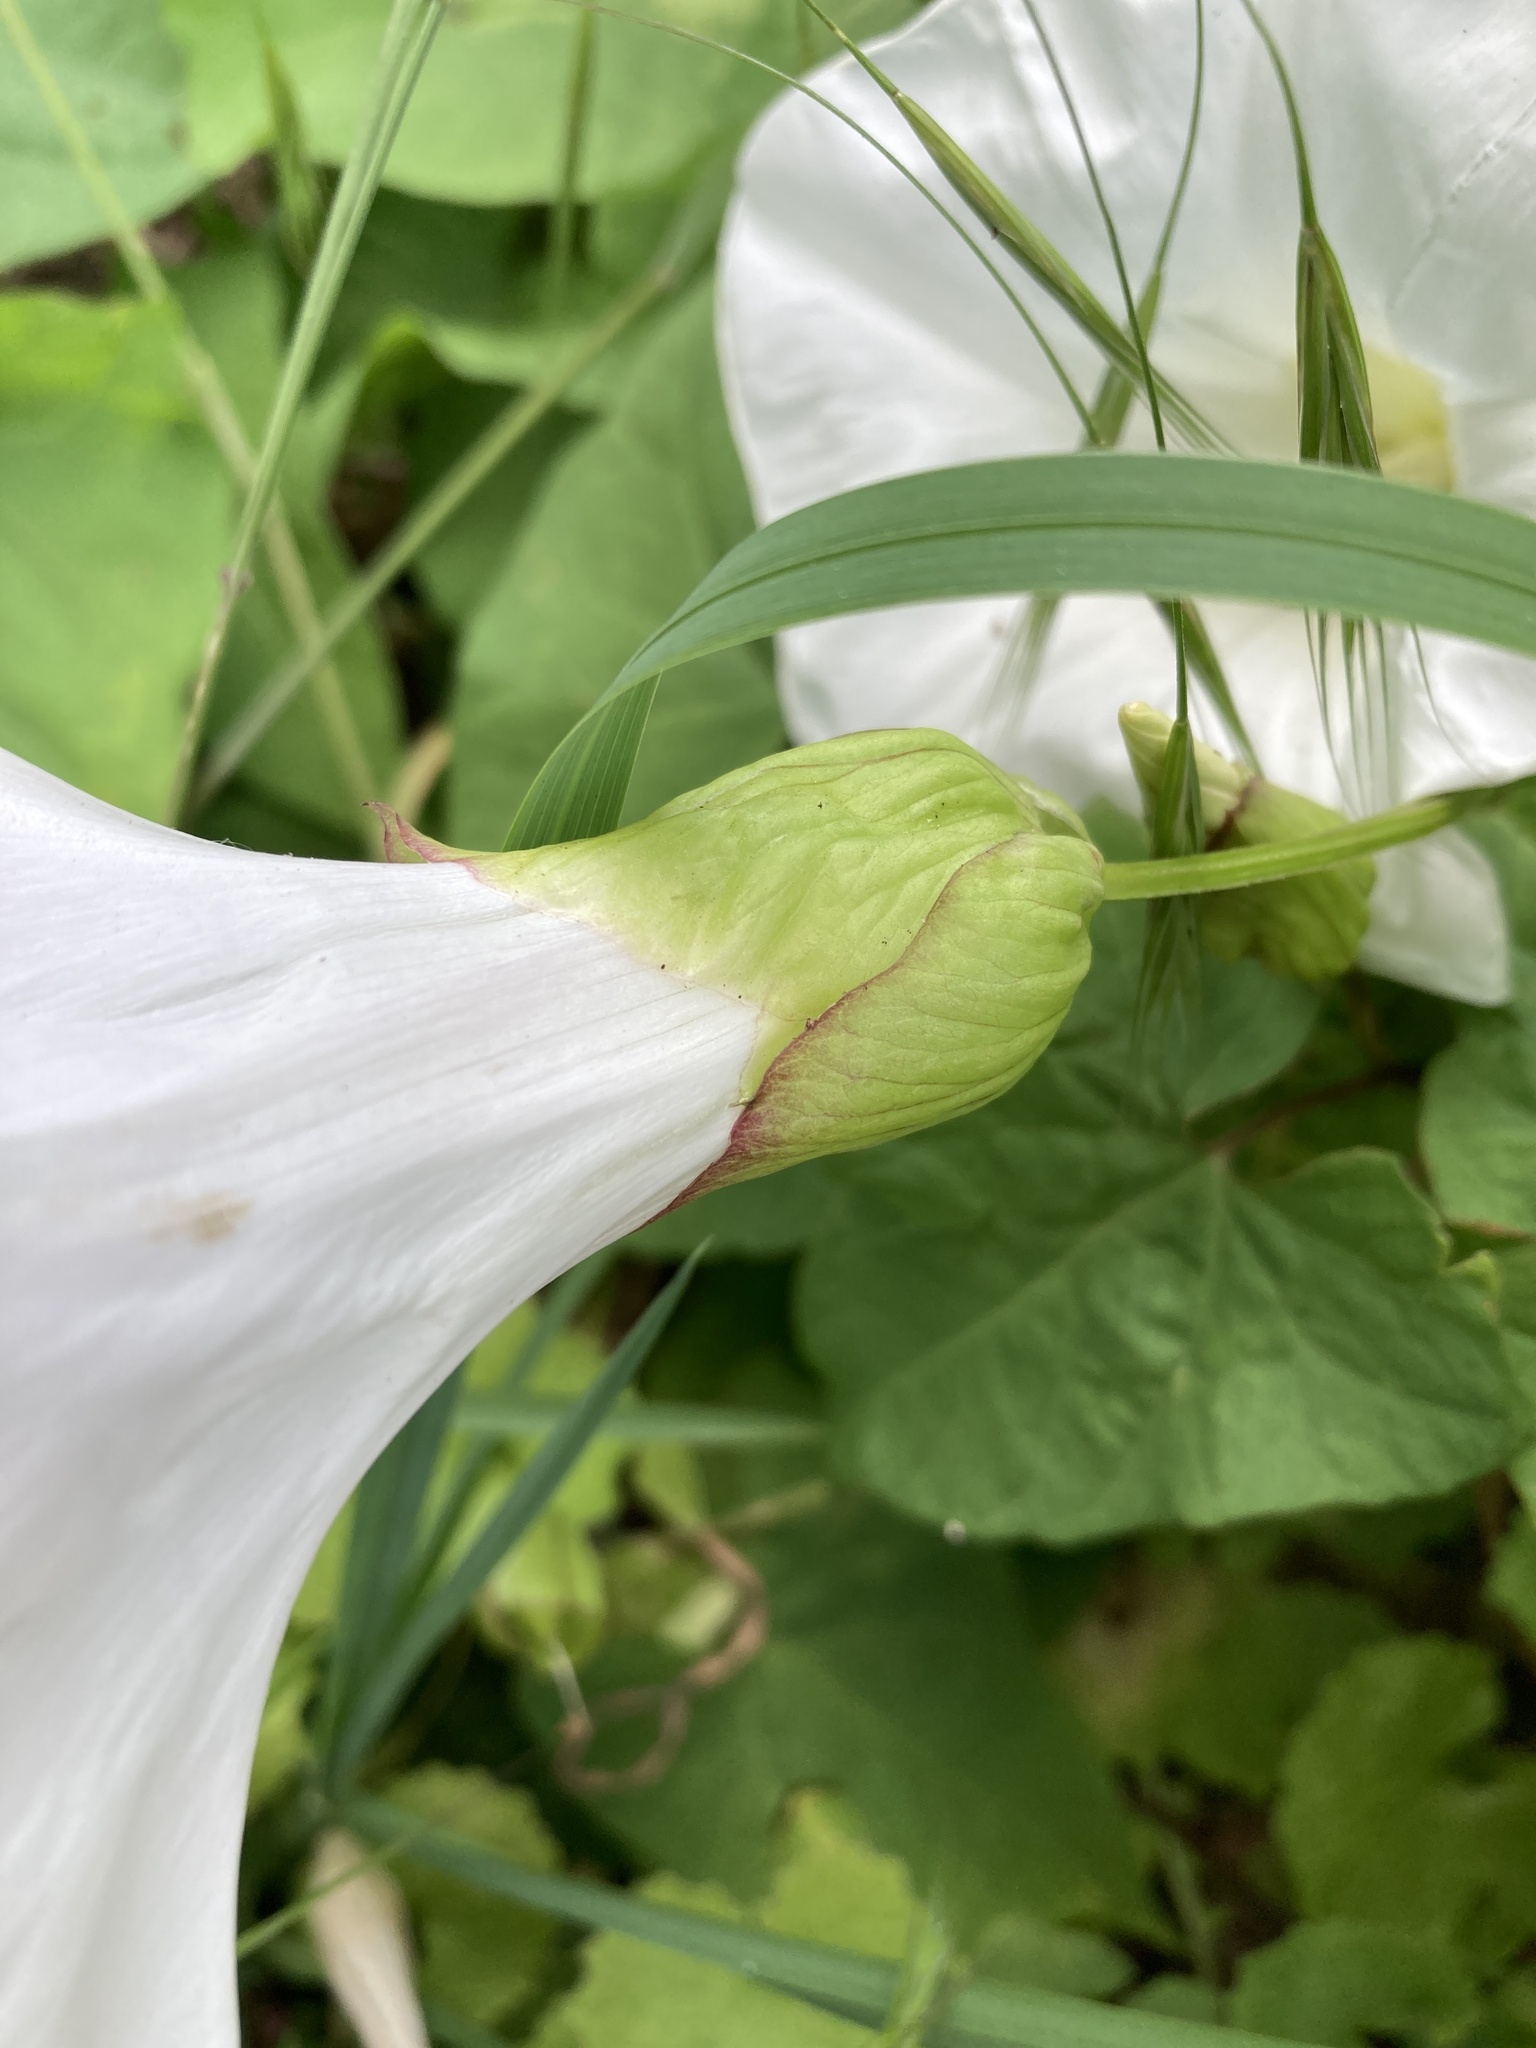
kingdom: Plantae
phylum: Tracheophyta
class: Magnoliopsida
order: Solanales
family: Convolvulaceae
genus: Calystegia
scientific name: Calystegia silvatica
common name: Large bindweed
